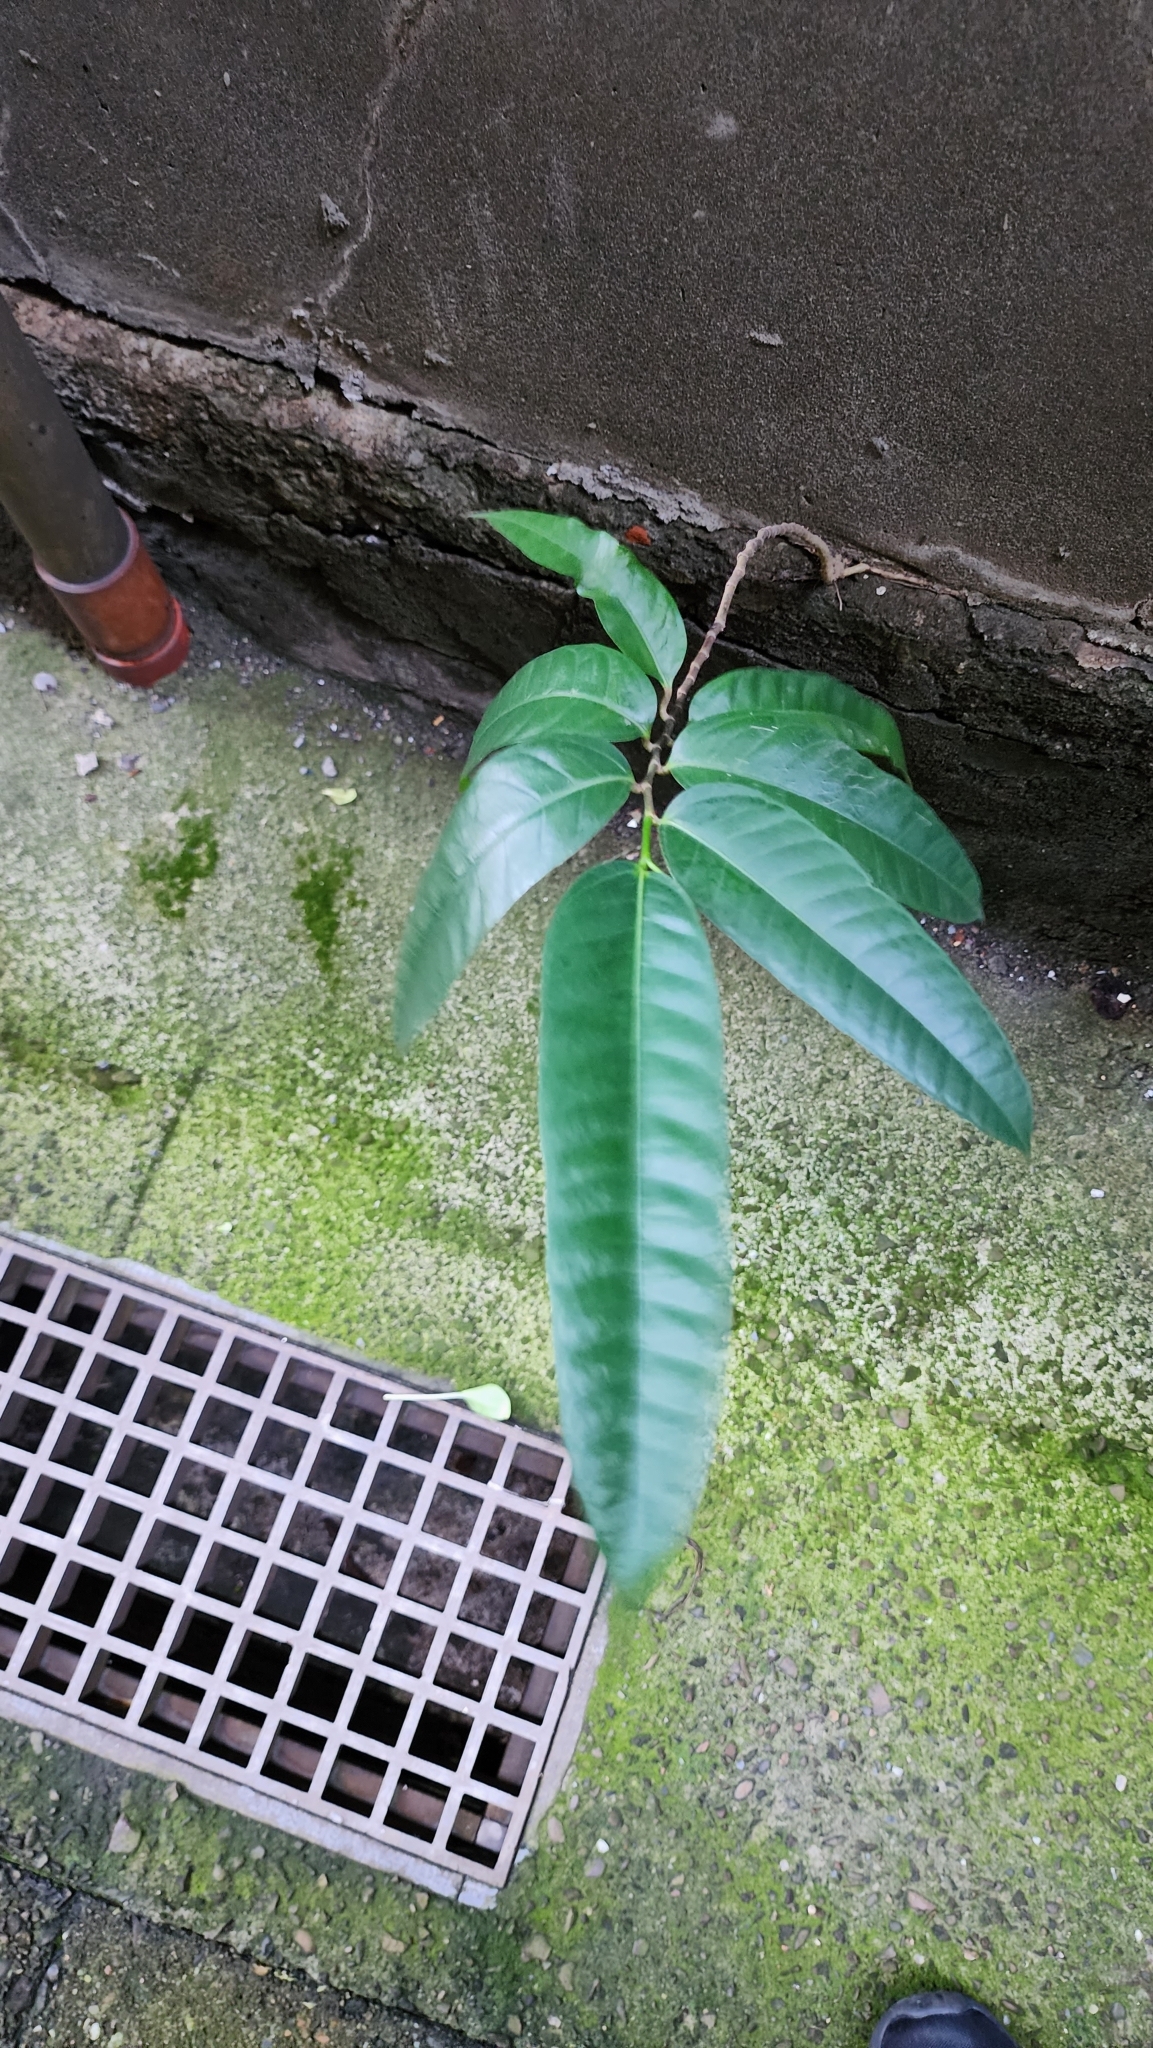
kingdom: Plantae
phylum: Tracheophyta
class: Magnoliopsida
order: Rosales
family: Moraceae
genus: Ficus
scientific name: Ficus virgata
